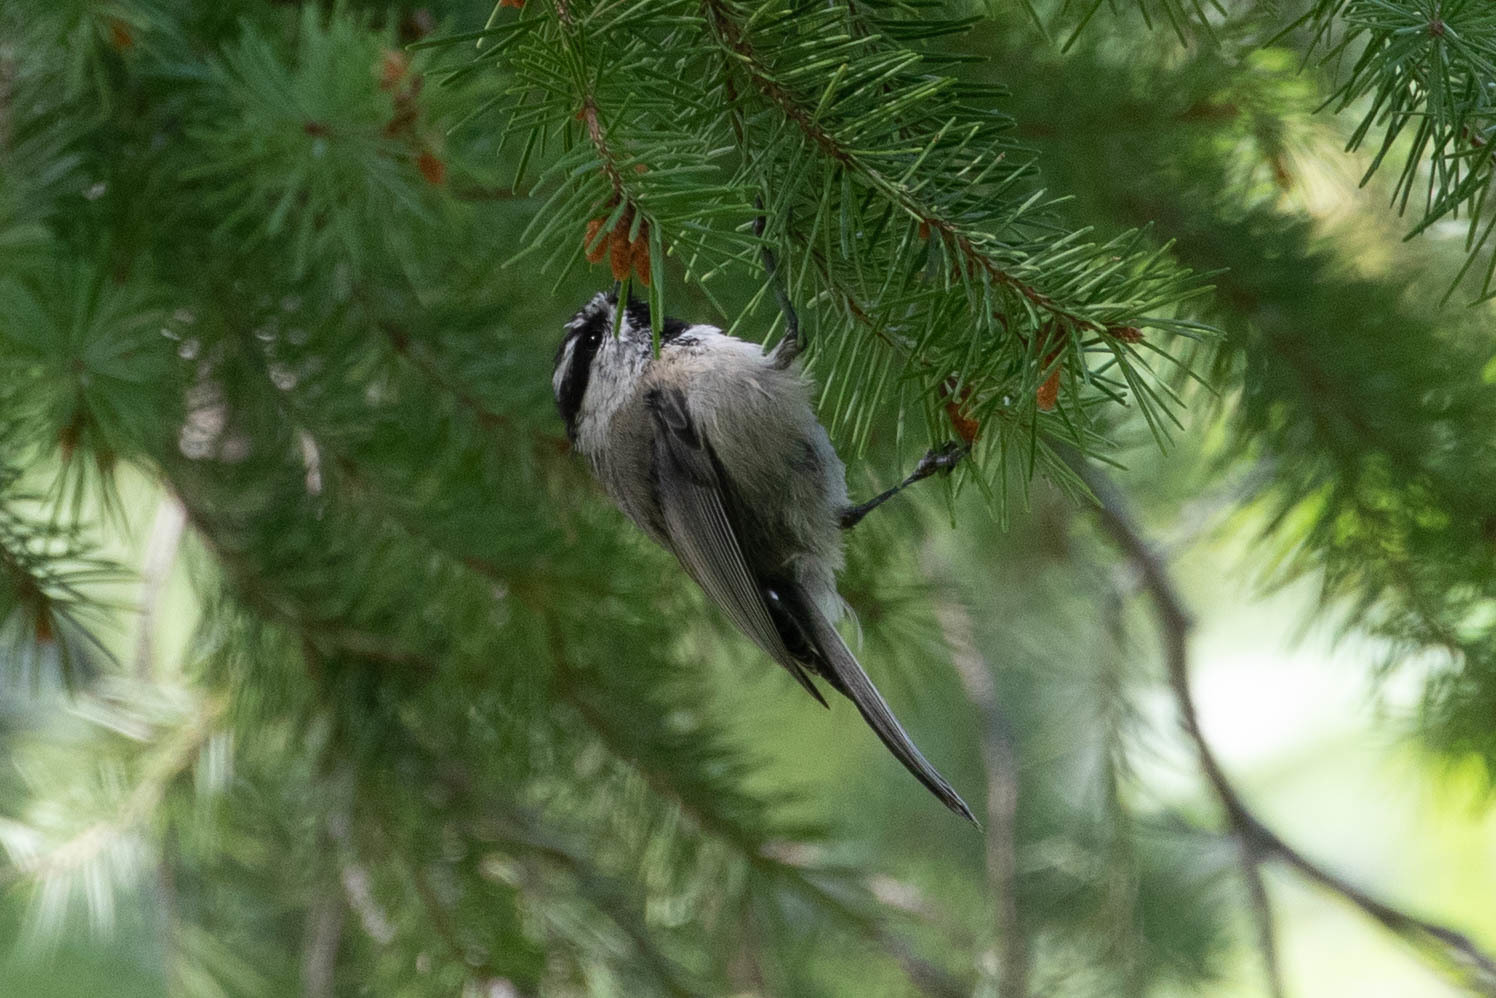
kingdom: Animalia
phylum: Chordata
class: Aves
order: Passeriformes
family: Paridae
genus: Poecile
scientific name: Poecile gambeli
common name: Mountain chickadee
